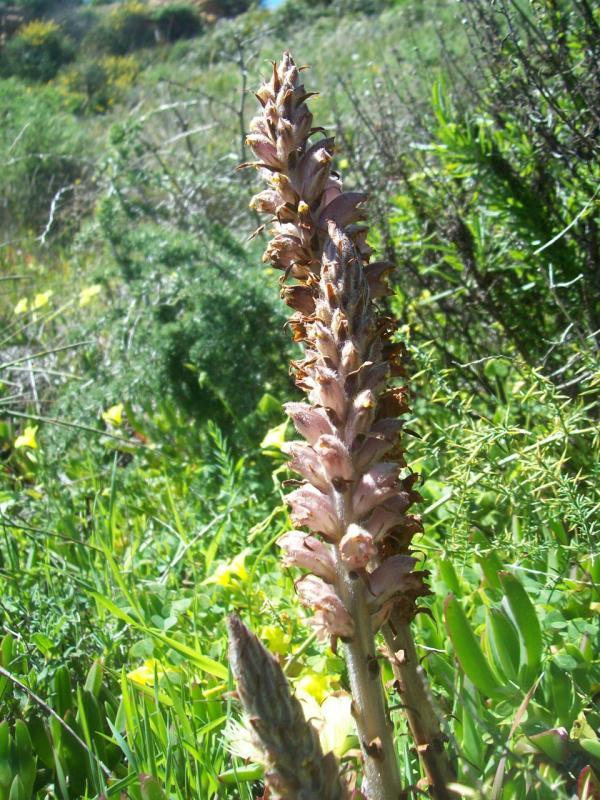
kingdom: Plantae
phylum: Tracheophyta
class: Magnoliopsida
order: Lamiales
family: Orobanchaceae
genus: Orobanche
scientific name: Orobanche rapum-genistae
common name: Greater broomrape
